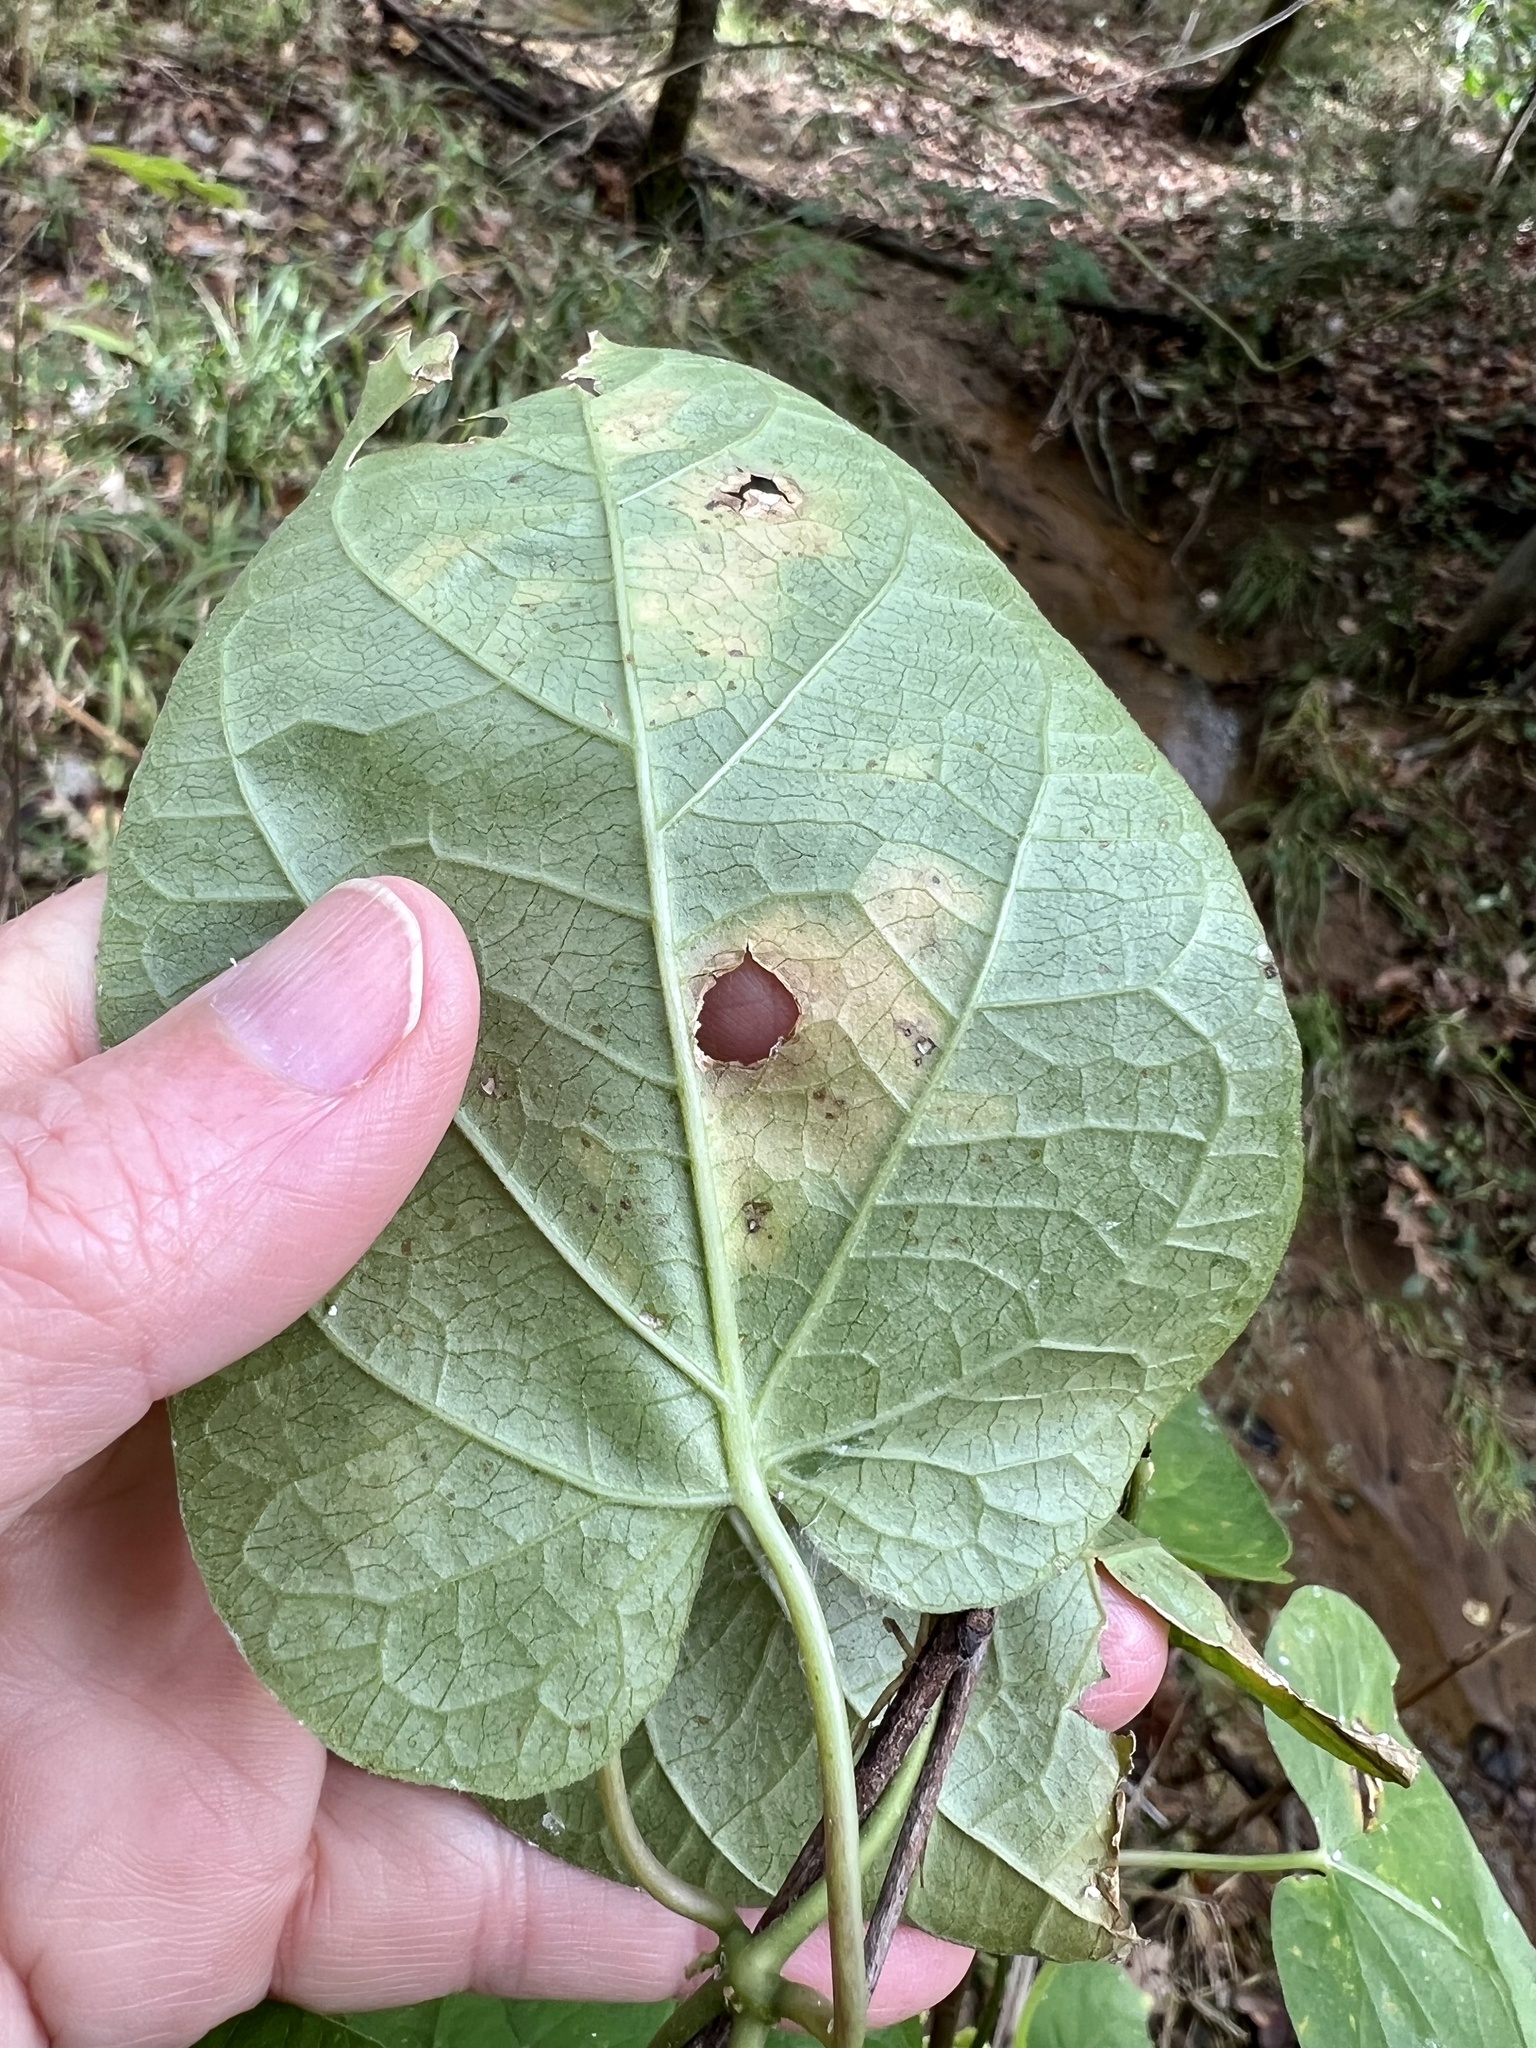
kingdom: Plantae
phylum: Tracheophyta
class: Magnoliopsida
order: Gentianales
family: Apocynaceae
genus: Gonolobus
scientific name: Gonolobus suberosus
